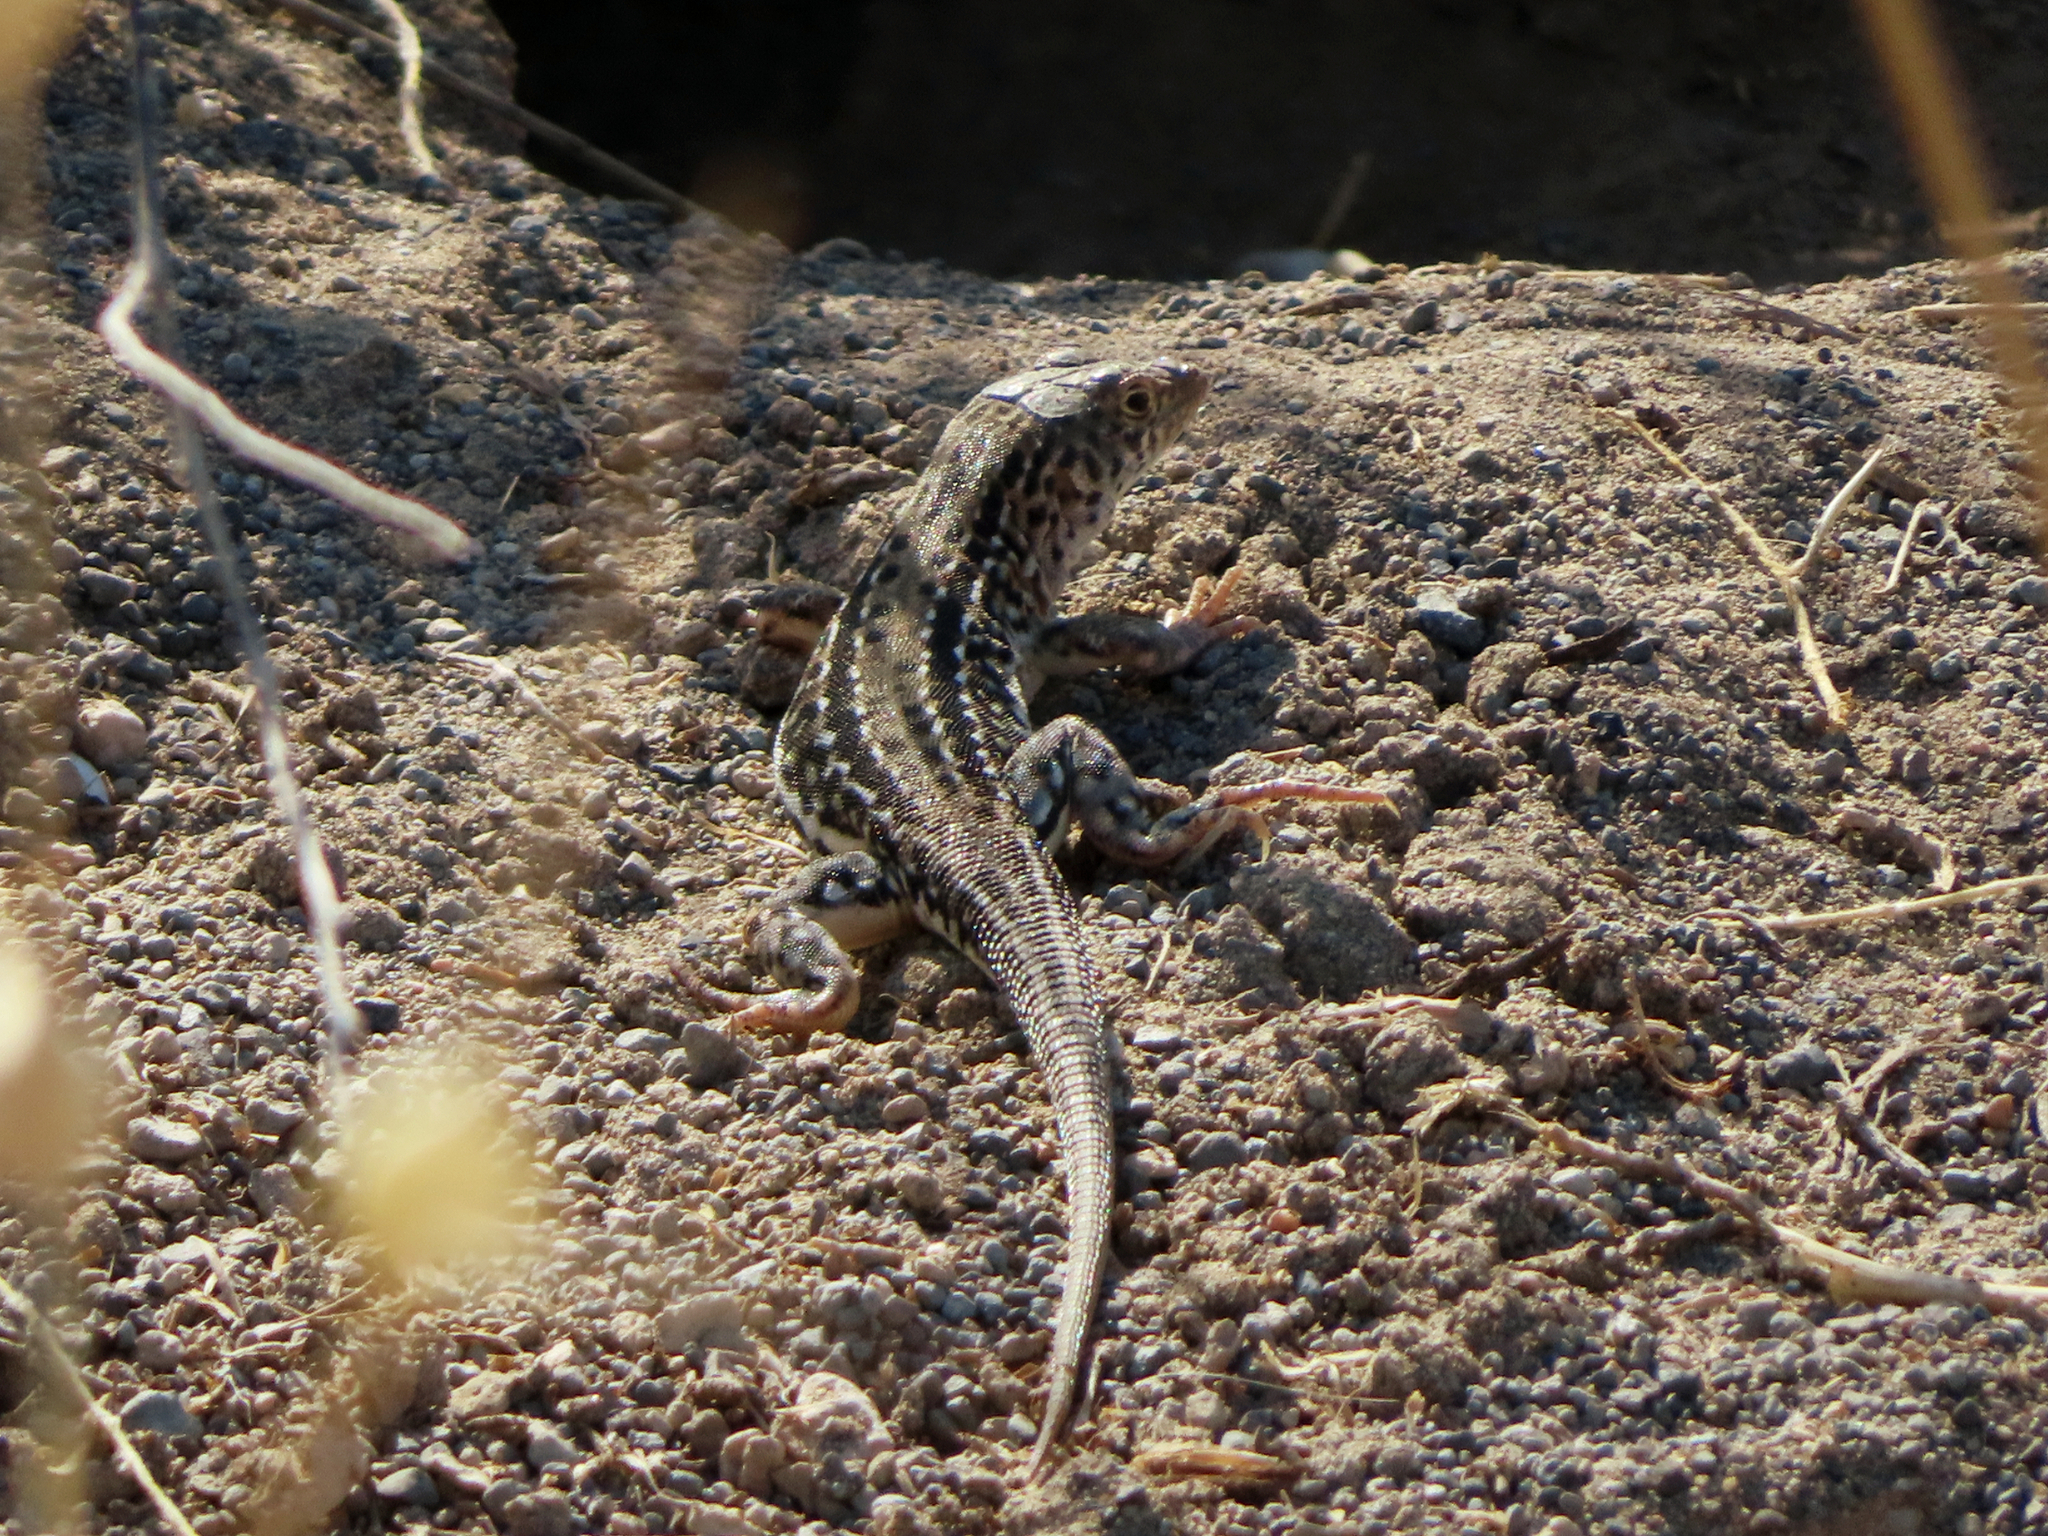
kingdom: Animalia
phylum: Chordata
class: Squamata
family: Lacertidae
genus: Eremias
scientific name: Eremias strauchi
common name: Strauch's racerunner
